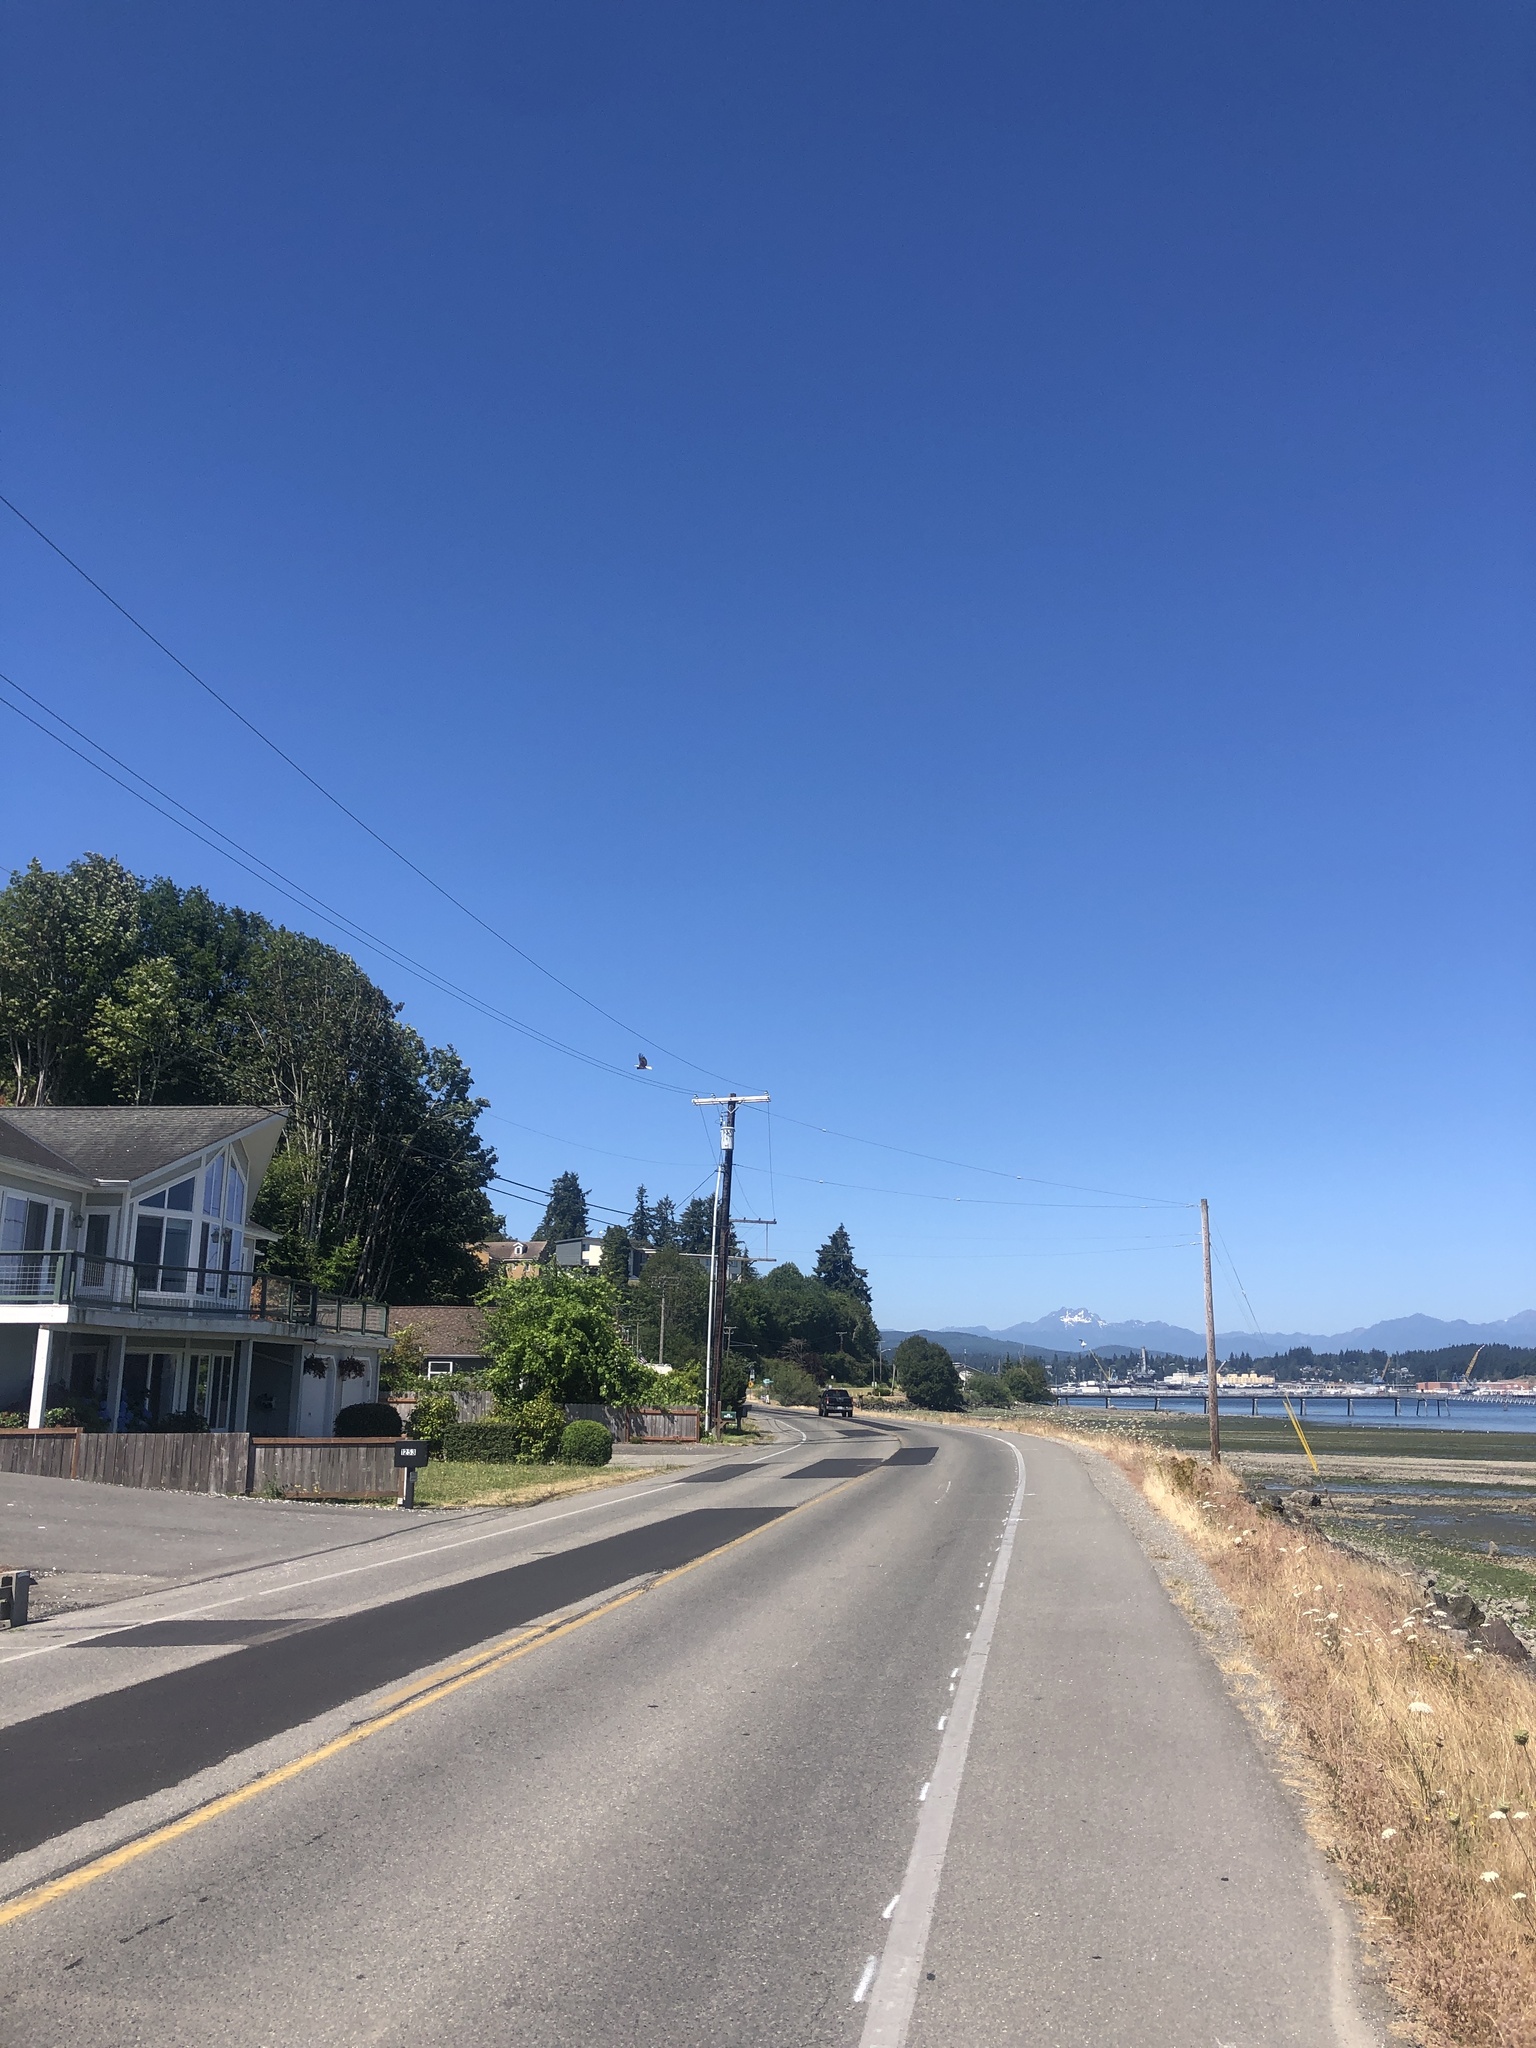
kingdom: Animalia
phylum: Chordata
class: Aves
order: Accipitriformes
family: Accipitridae
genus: Haliaeetus
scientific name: Haliaeetus leucocephalus
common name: Bald eagle
